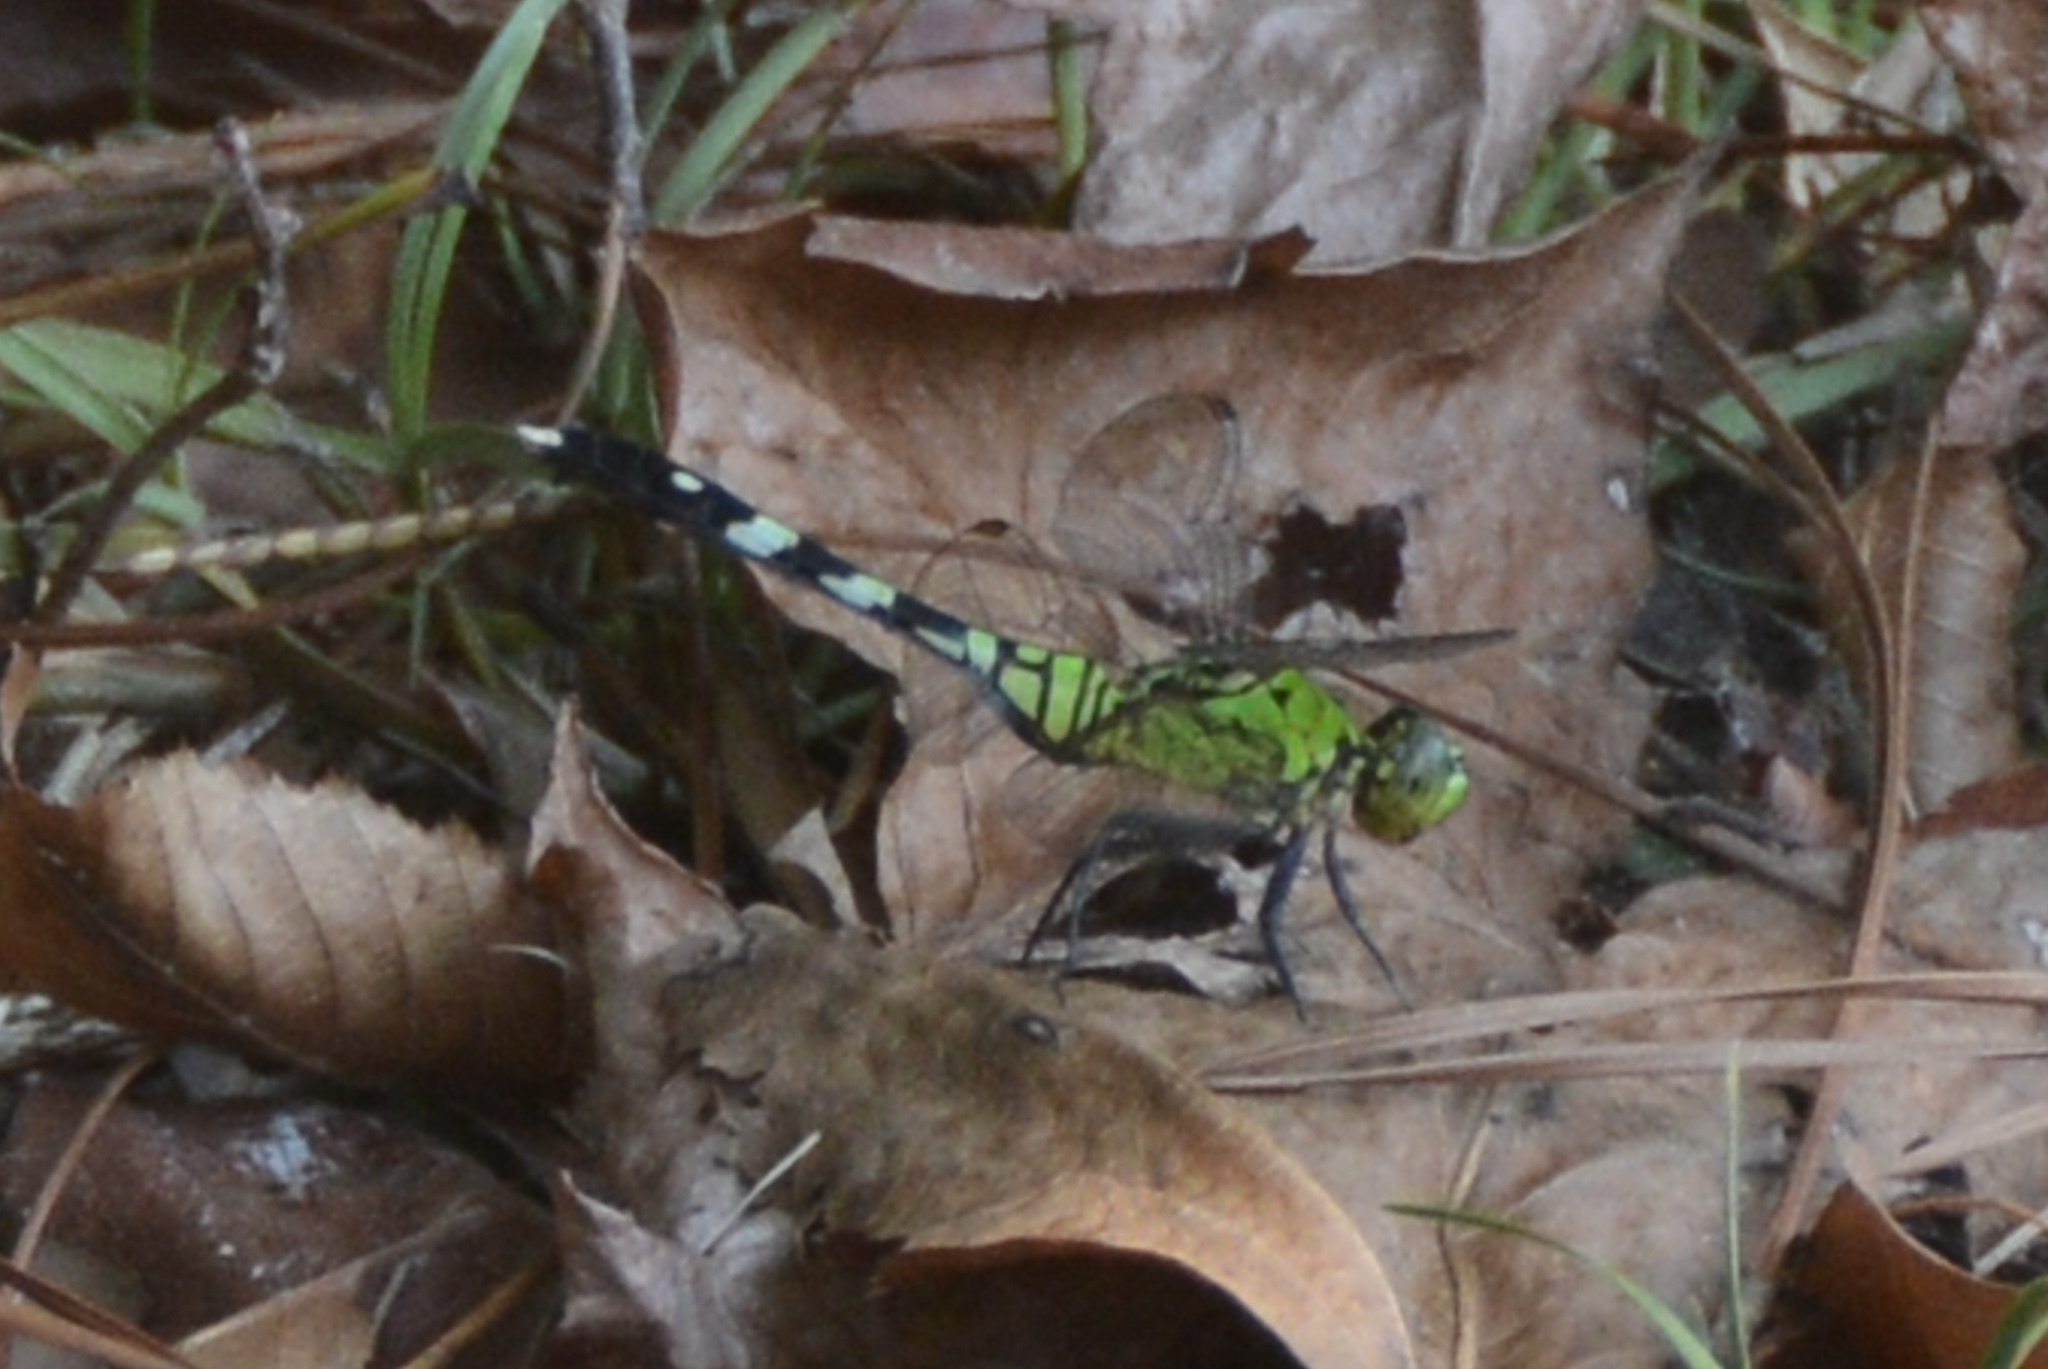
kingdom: Animalia
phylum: Arthropoda
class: Insecta
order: Odonata
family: Libellulidae
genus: Erythemis
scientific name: Erythemis simplicicollis
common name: Eastern pondhawk
